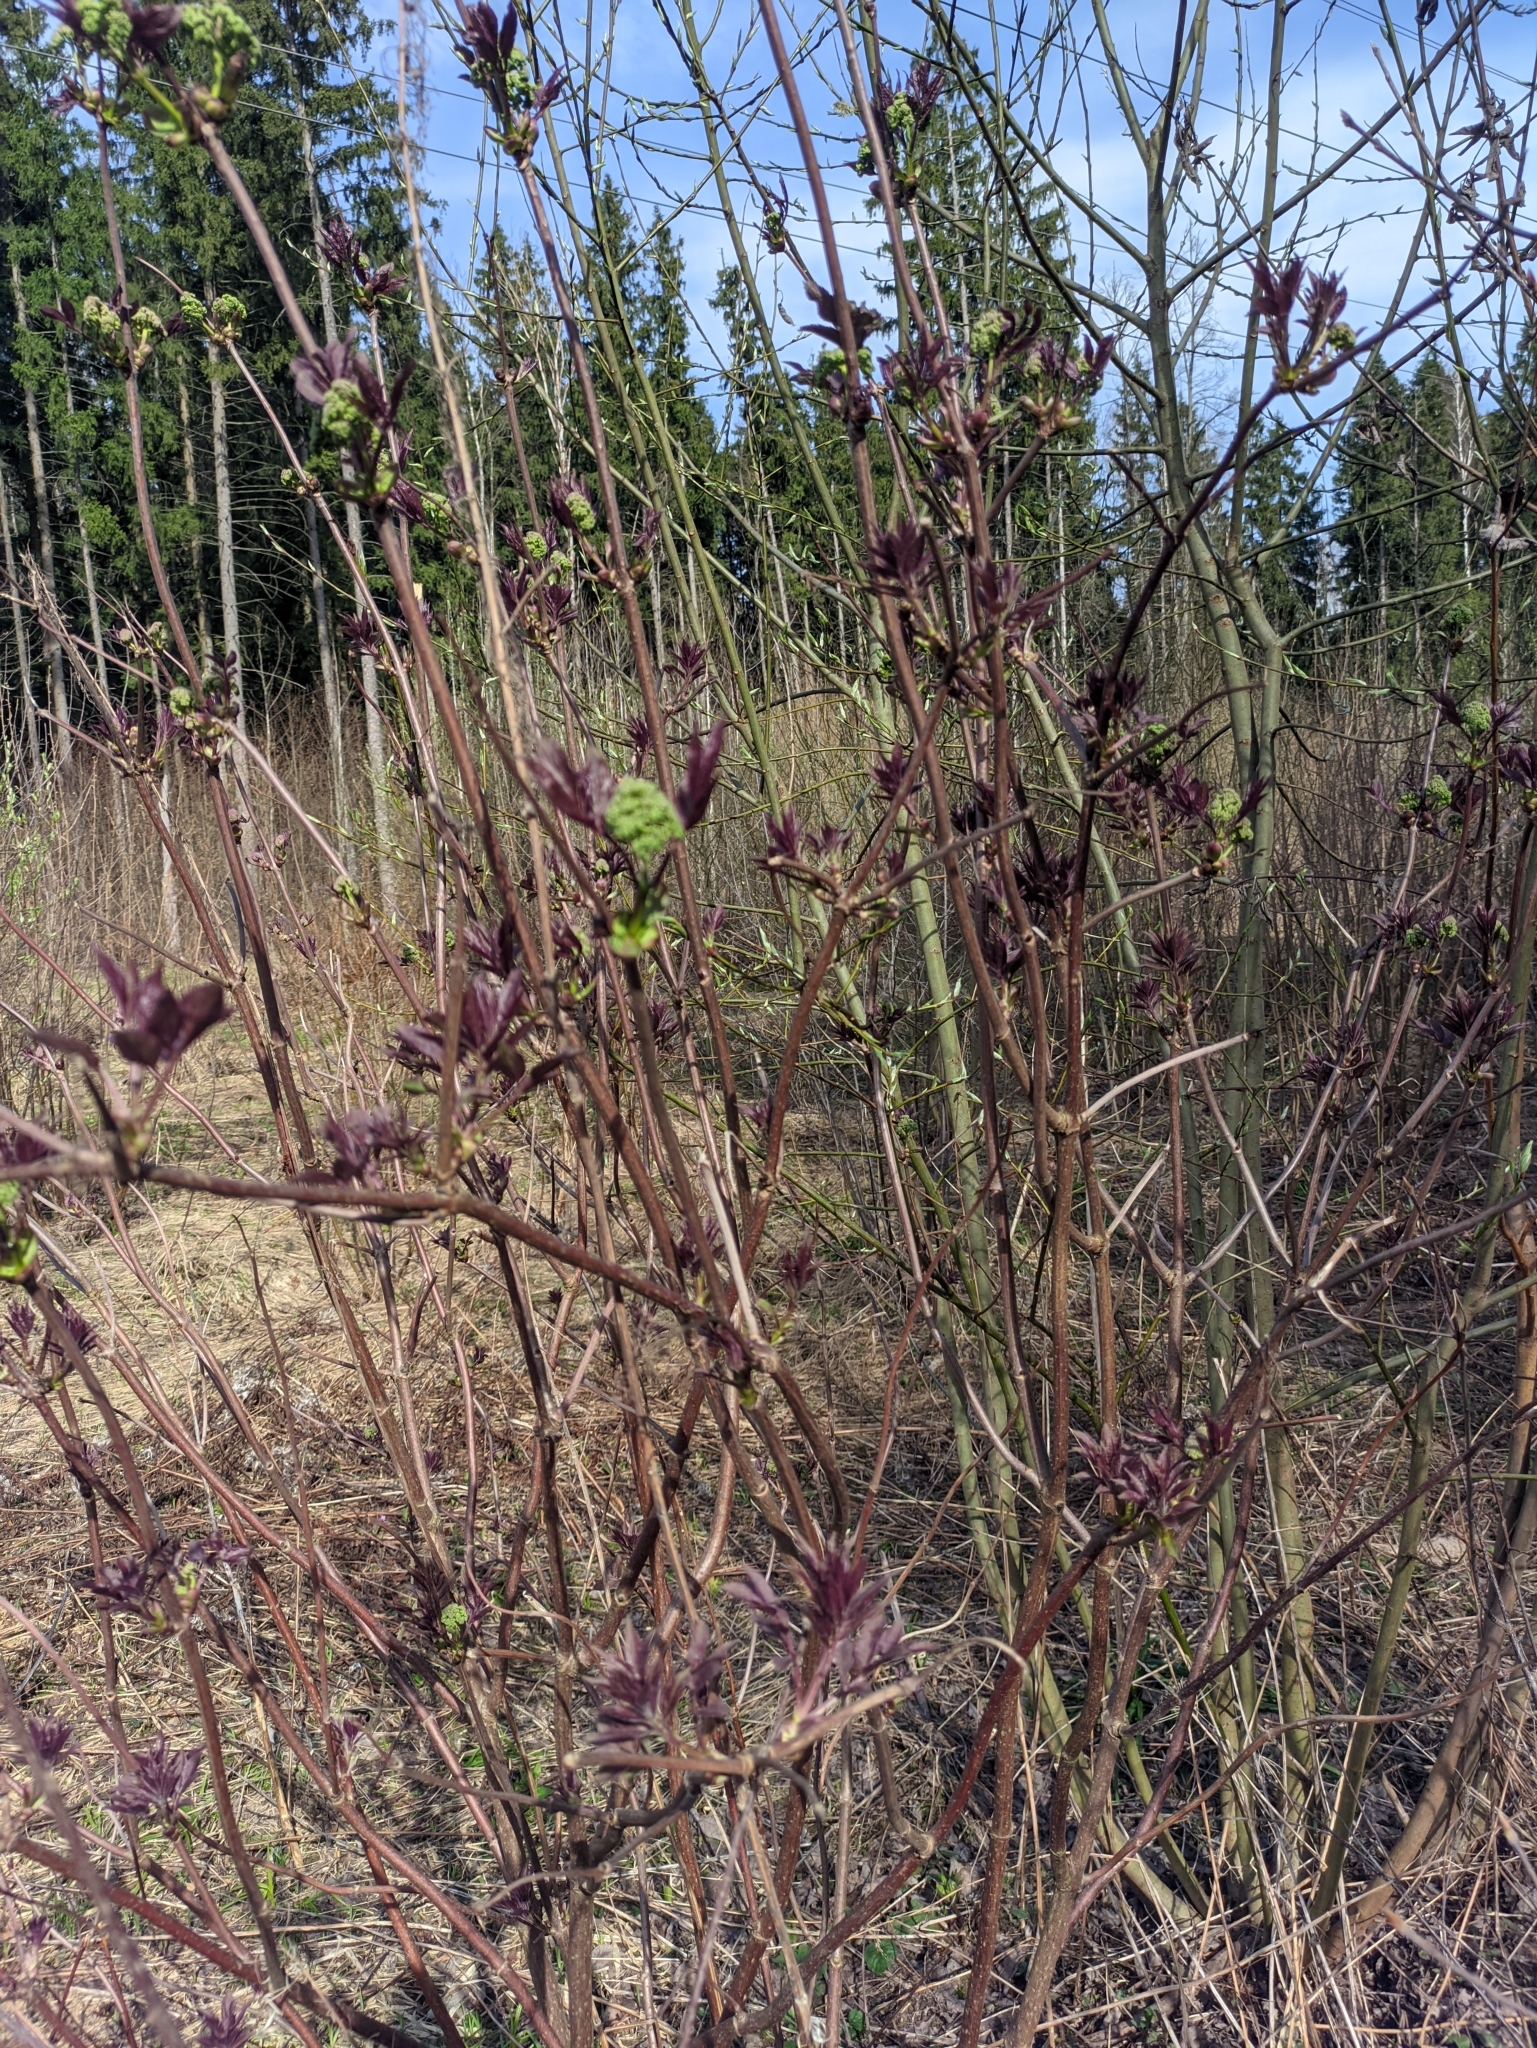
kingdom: Plantae
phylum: Tracheophyta
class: Magnoliopsida
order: Dipsacales
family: Viburnaceae
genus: Sambucus
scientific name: Sambucus racemosa
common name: Red-berried elder
